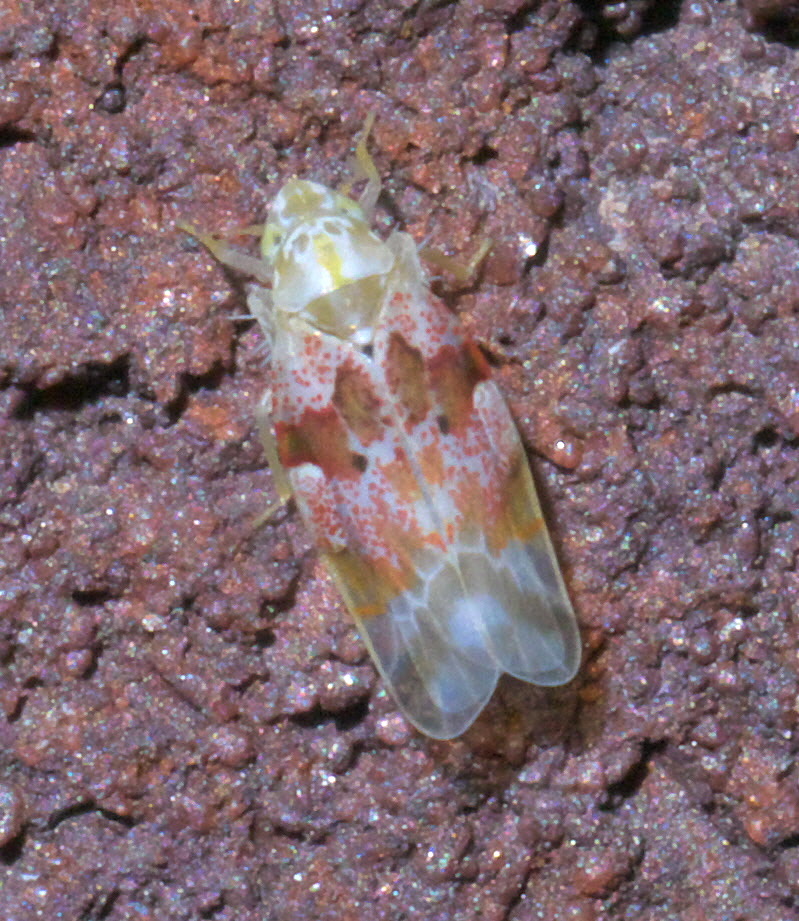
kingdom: Animalia
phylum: Arthropoda
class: Insecta
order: Hemiptera
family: Cicadellidae
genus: Hymetta
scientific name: Hymetta anthisma
